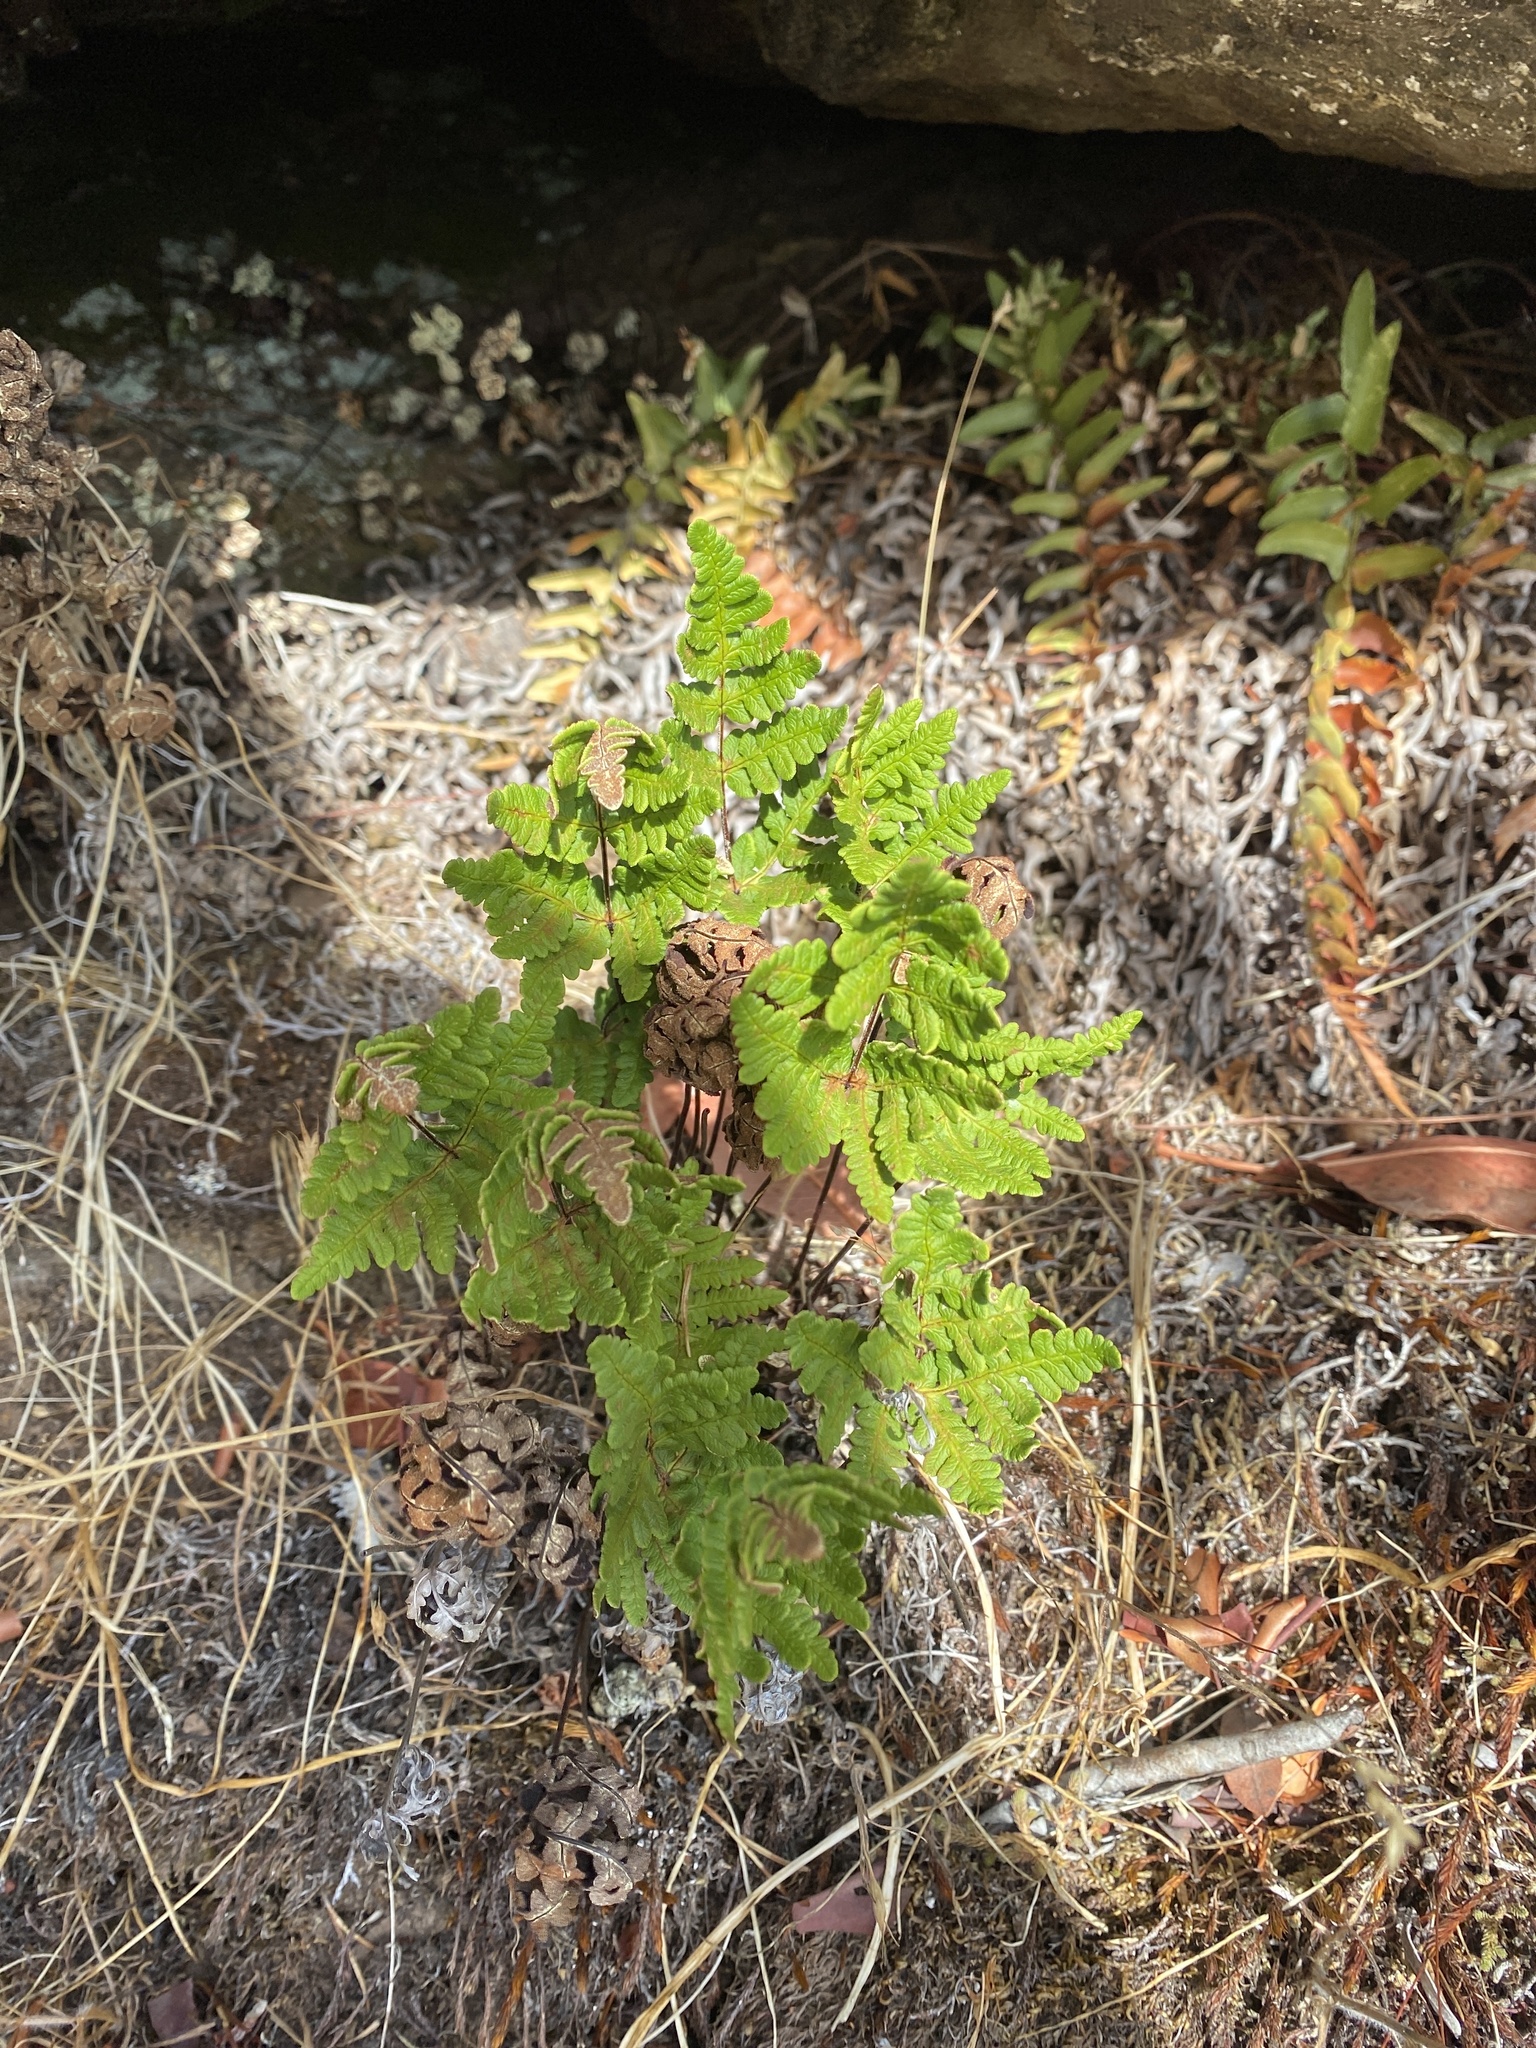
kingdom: Plantae
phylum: Tracheophyta
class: Polypodiopsida
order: Polypodiales
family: Pteridaceae
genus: Pentagramma
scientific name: Pentagramma triangularis
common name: Gold fern
